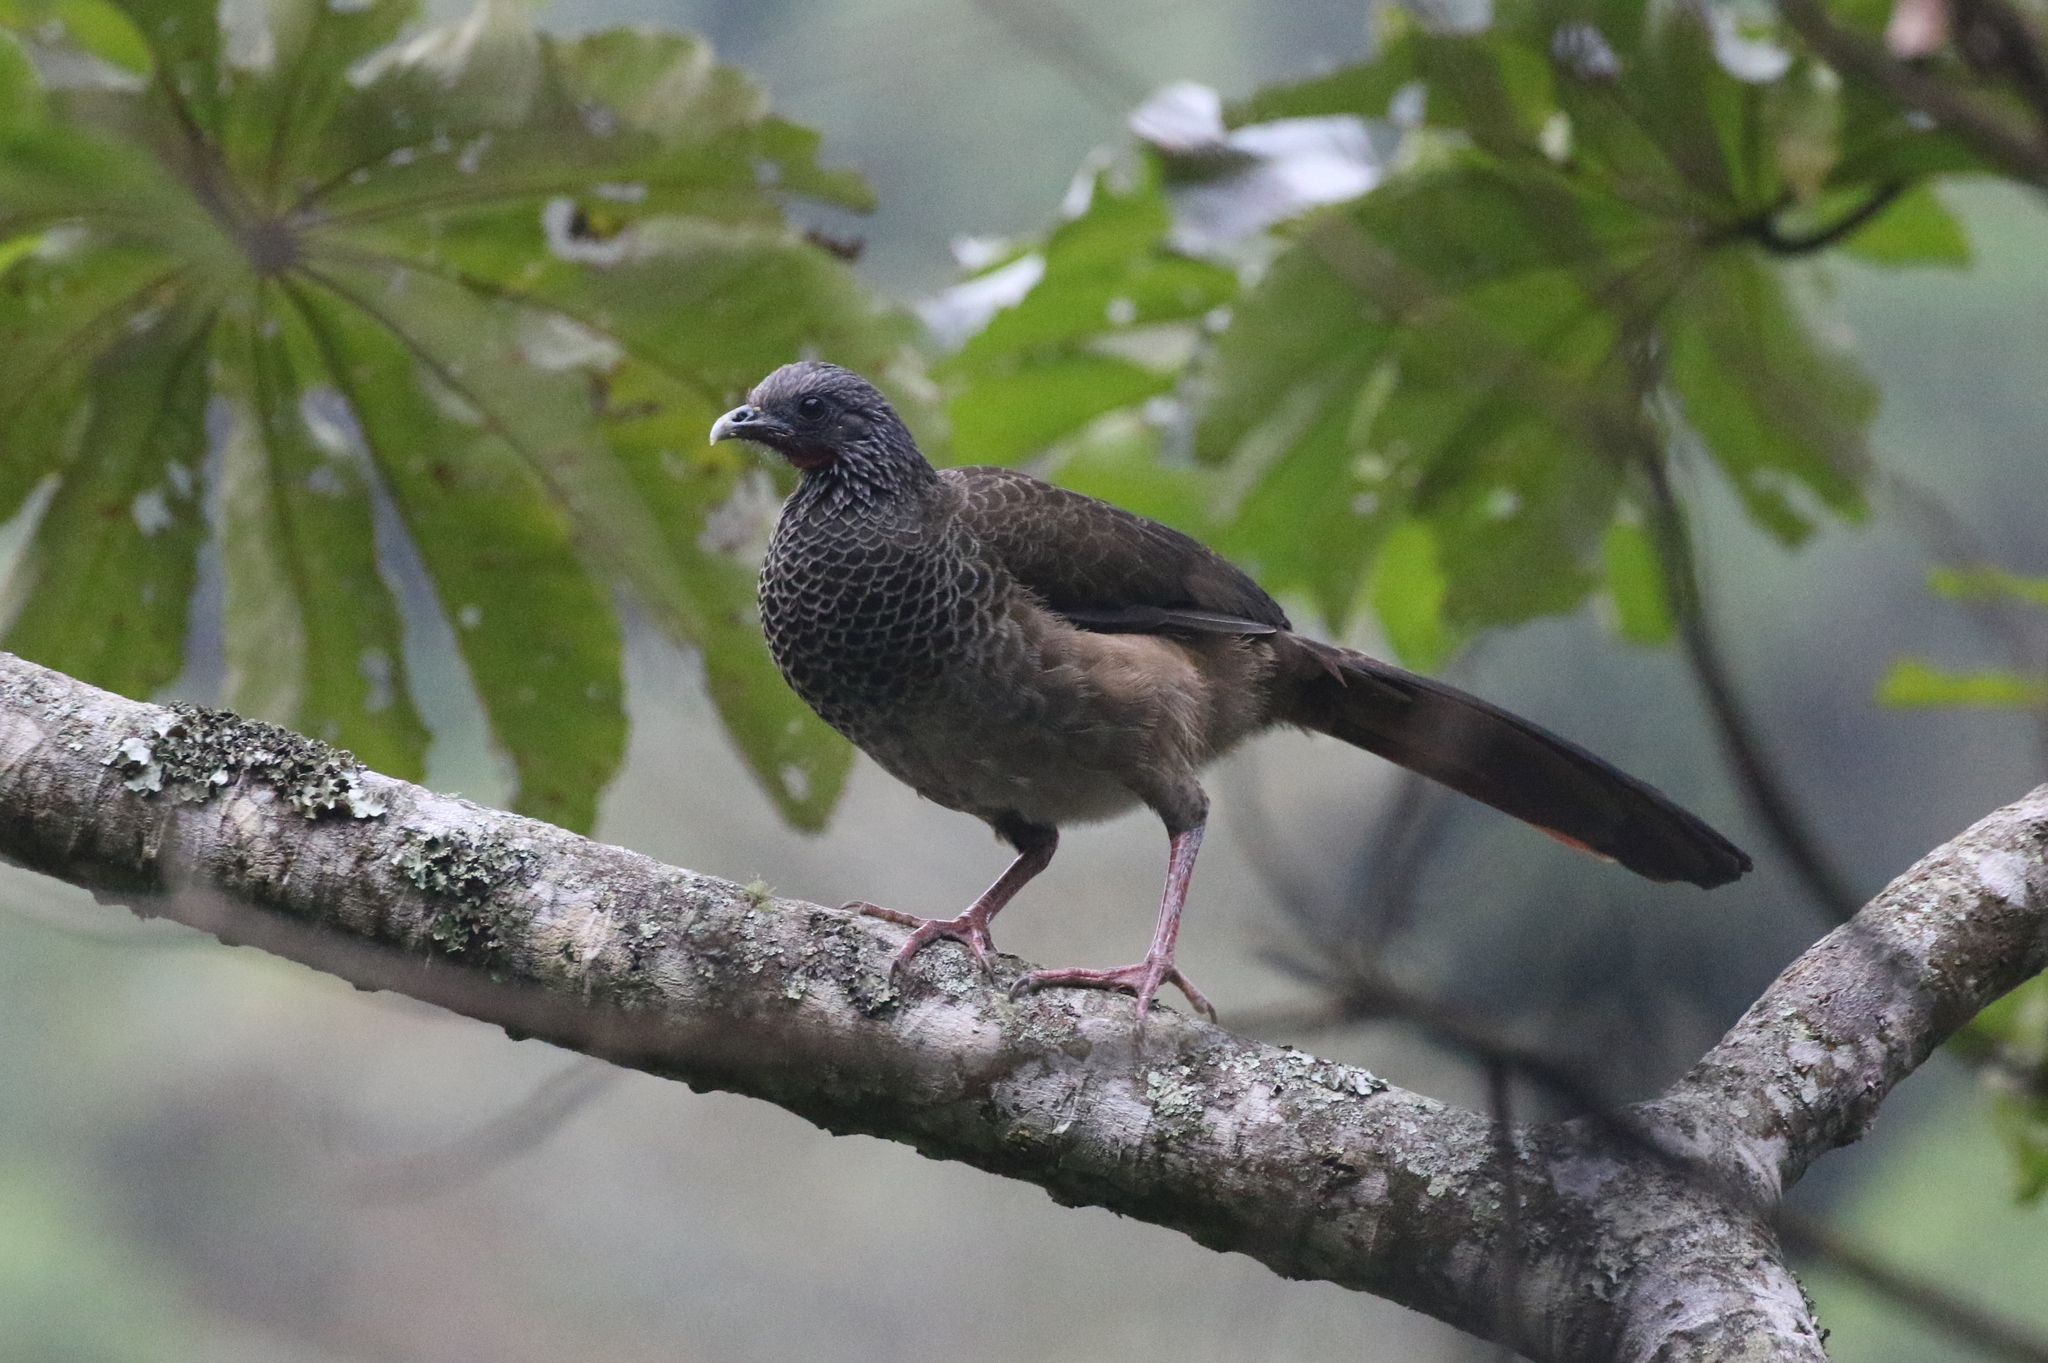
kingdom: Animalia
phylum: Chordata
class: Aves
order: Galliformes
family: Cracidae
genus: Ortalis
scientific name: Ortalis columbiana
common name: Colombian chachalaca
